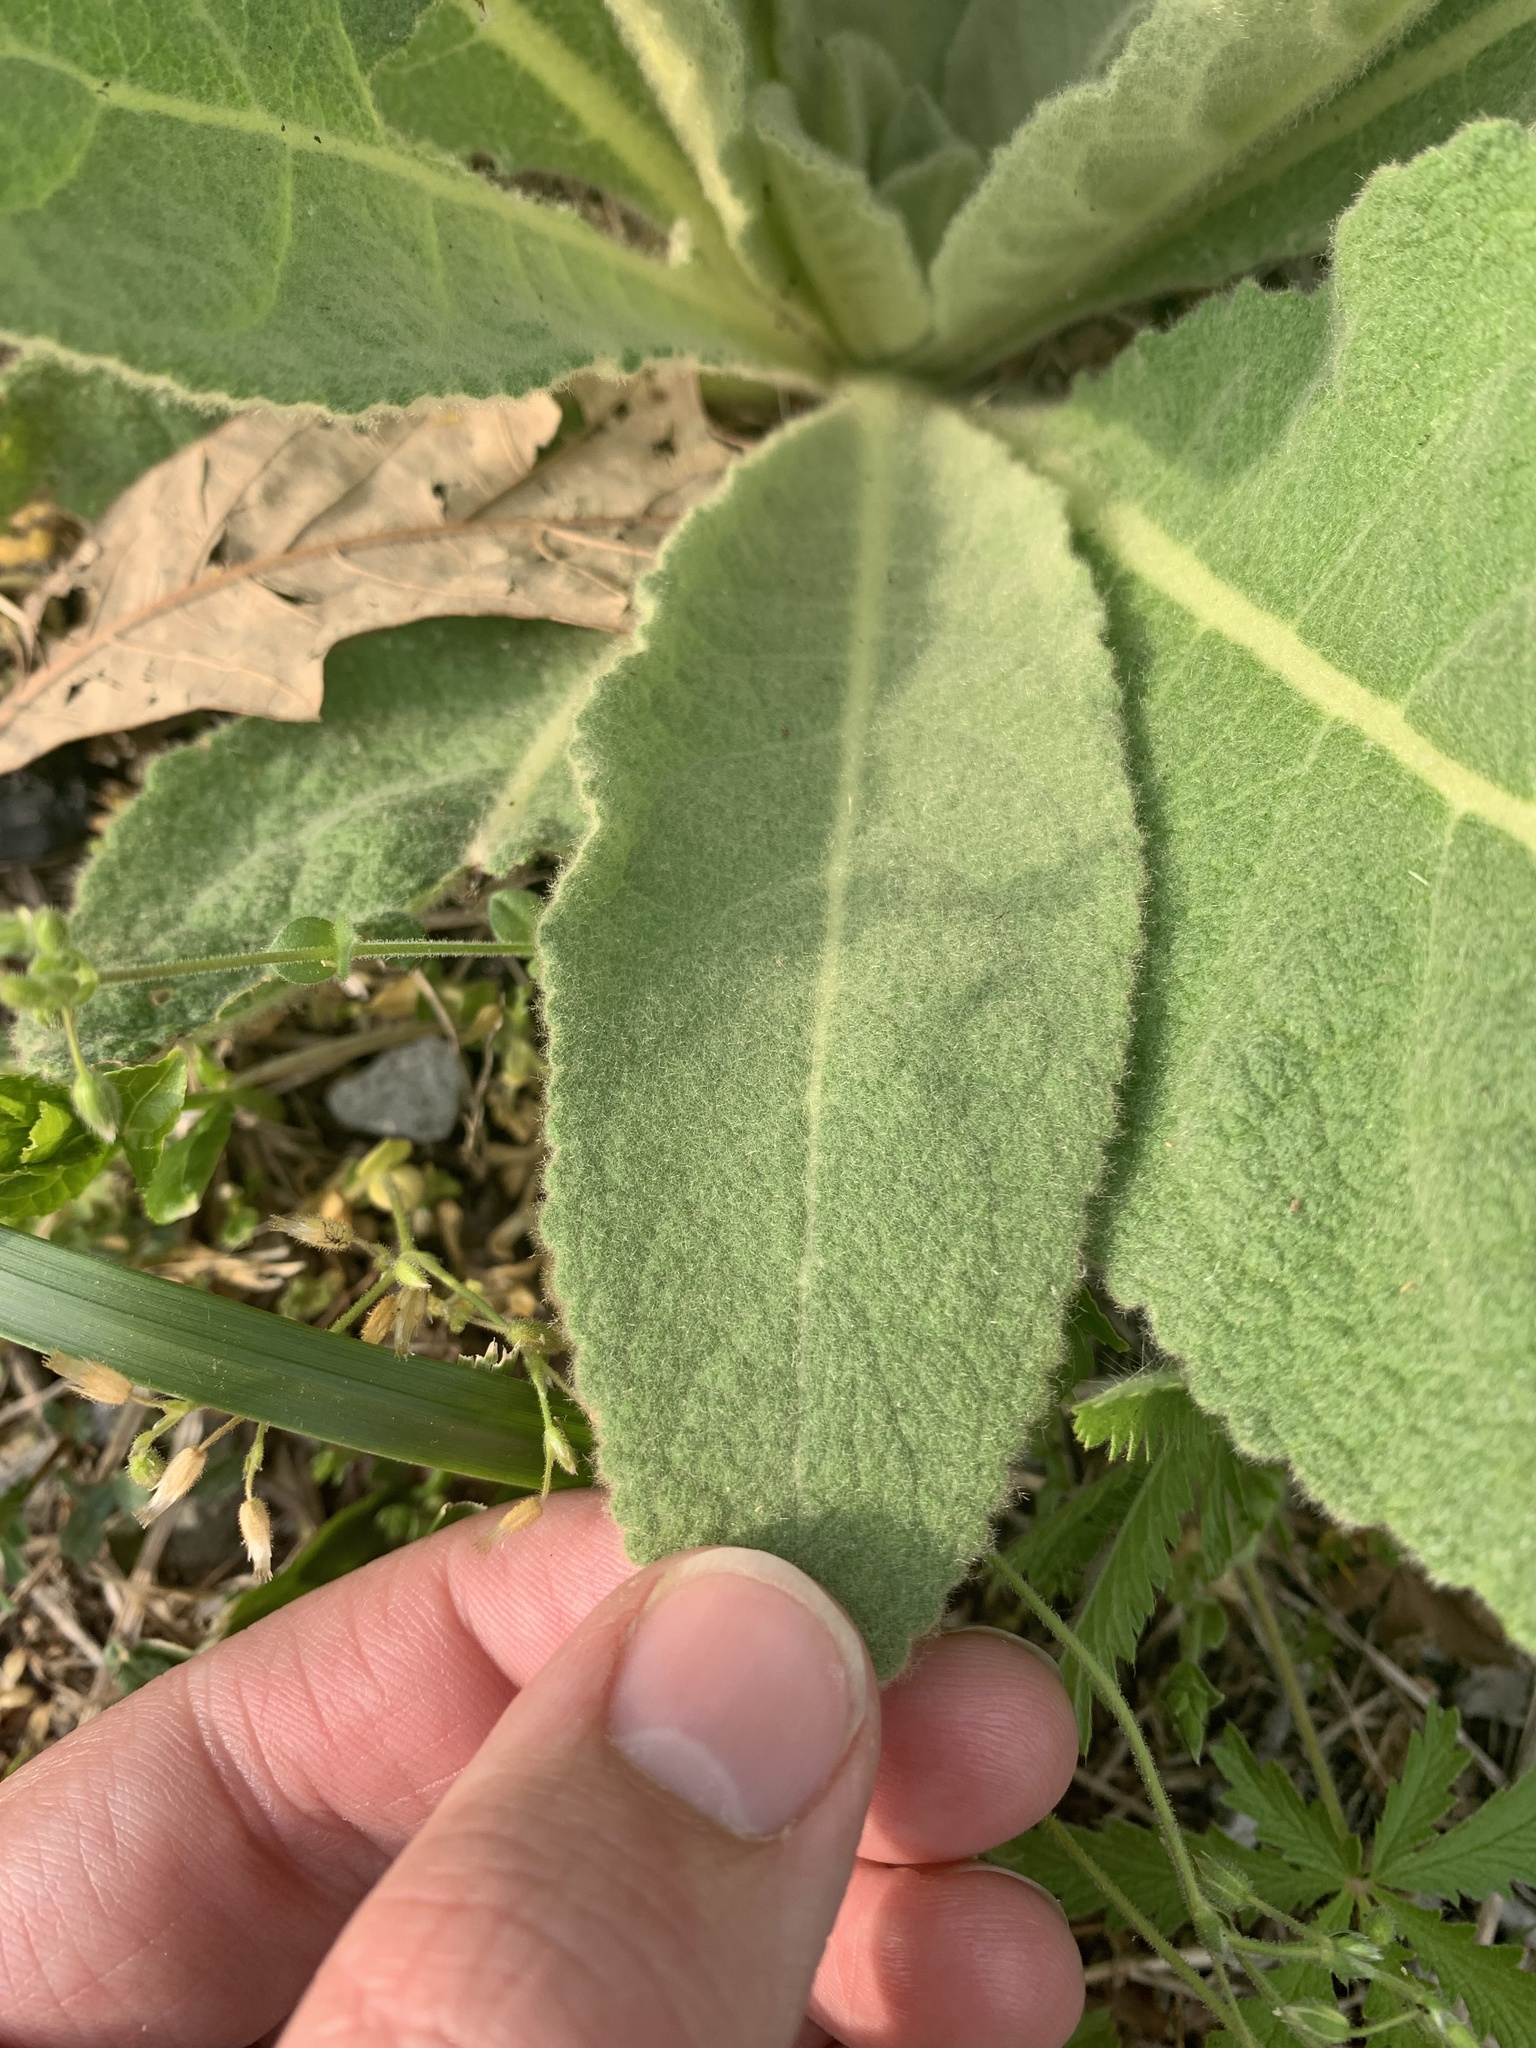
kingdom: Plantae
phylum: Tracheophyta
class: Magnoliopsida
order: Lamiales
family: Scrophulariaceae
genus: Verbascum
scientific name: Verbascum thapsus
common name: Common mullein
